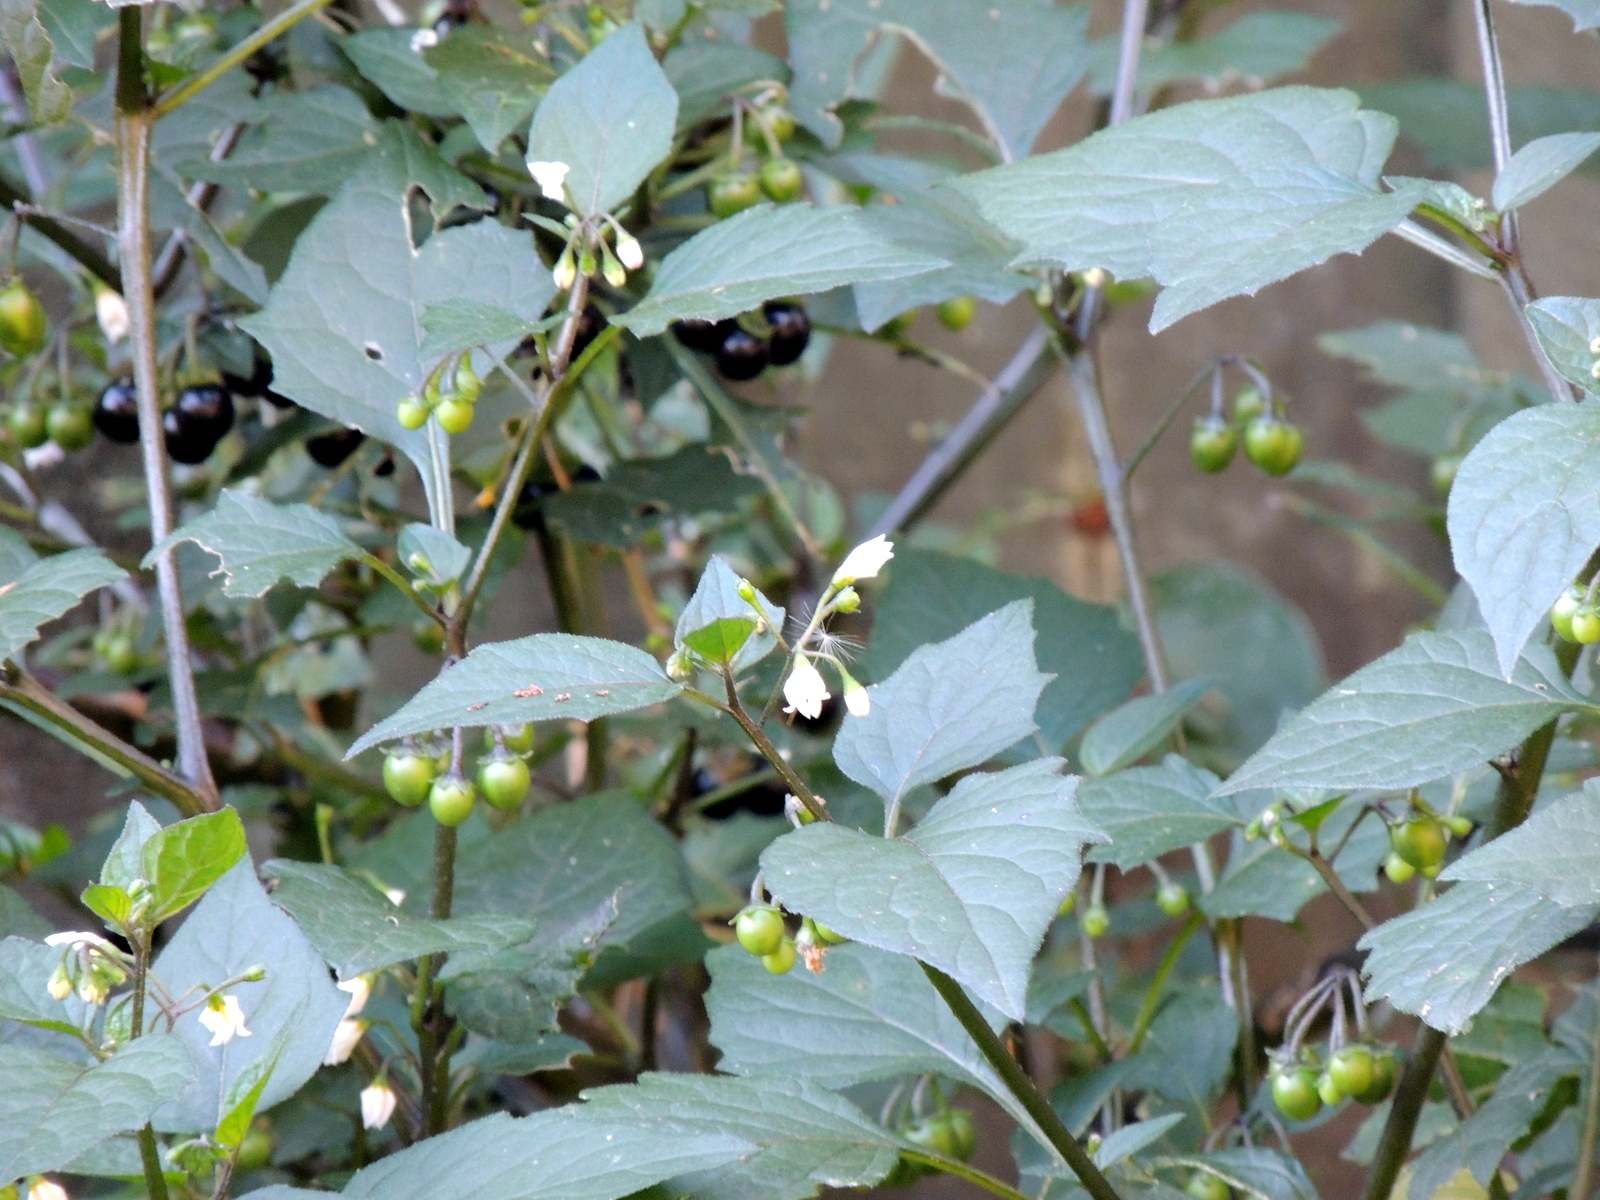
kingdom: Plantae
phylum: Tracheophyta
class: Magnoliopsida
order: Solanales
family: Solanaceae
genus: Solanum
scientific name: Solanum nigrum
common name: Black nightshade
